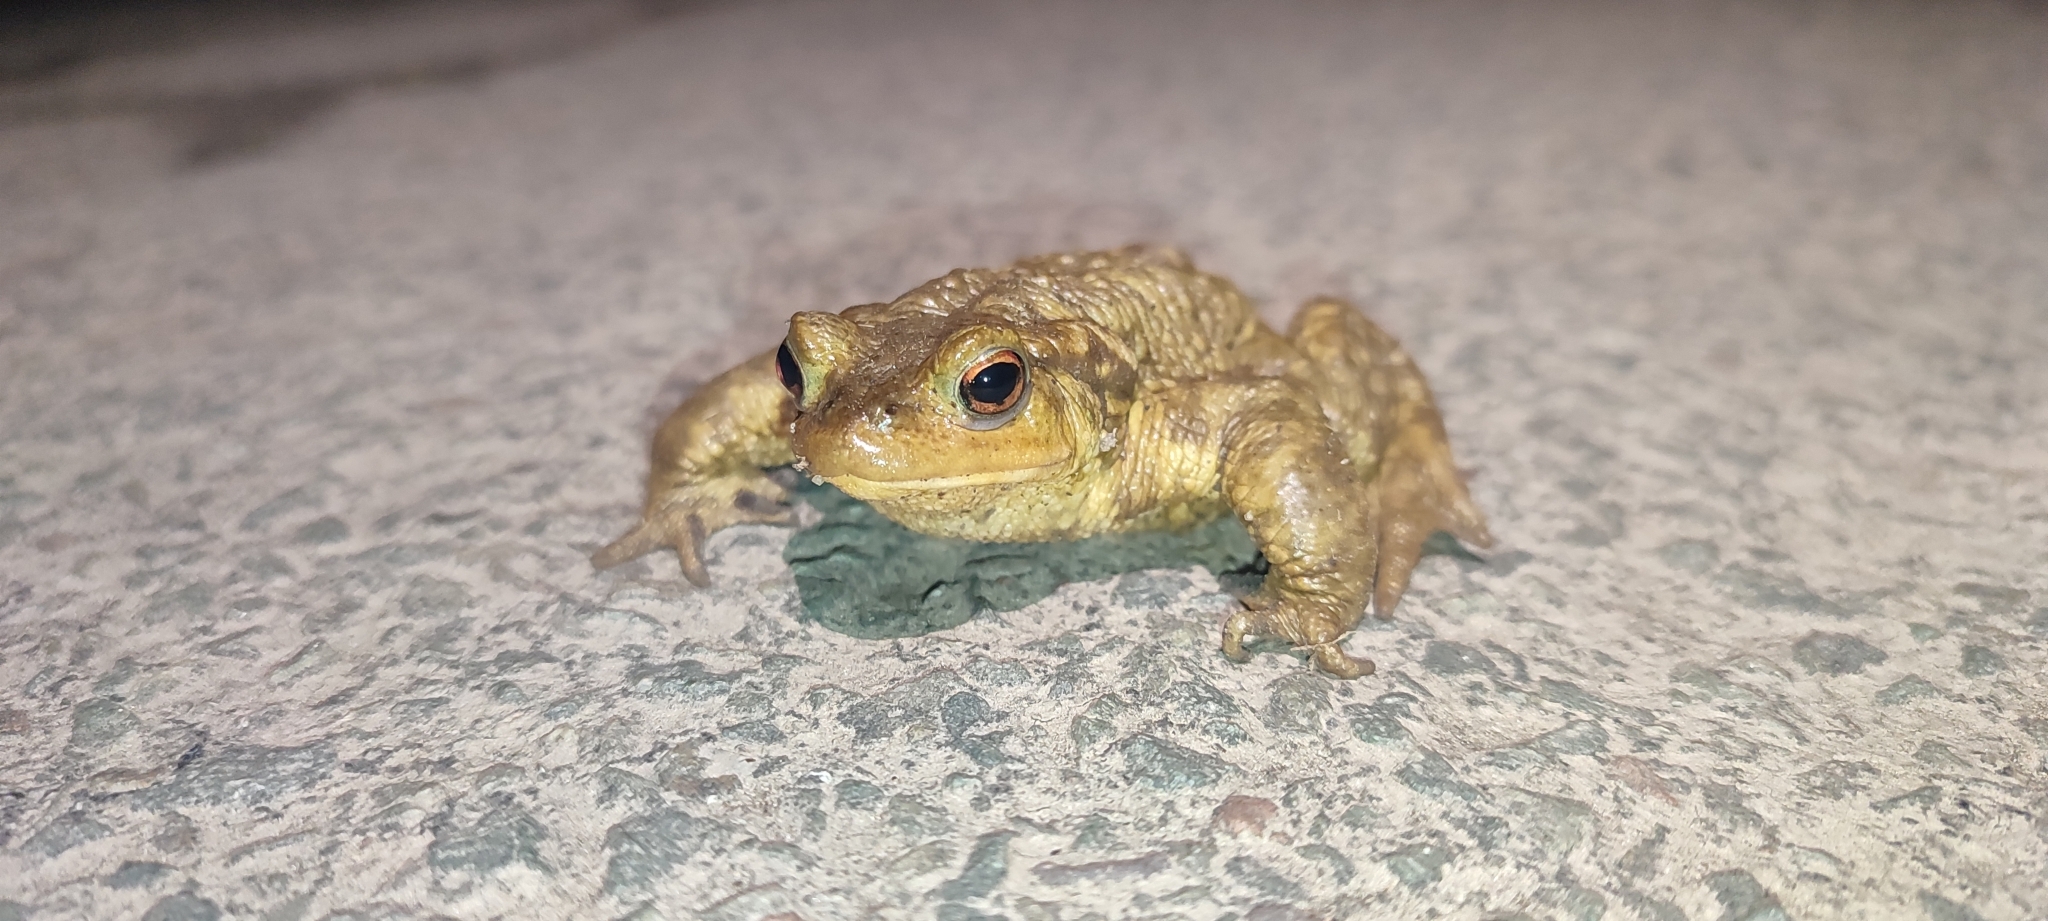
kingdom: Animalia
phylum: Chordata
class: Amphibia
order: Anura
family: Bufonidae
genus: Bufo
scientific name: Bufo spinosus
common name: Western common toad
